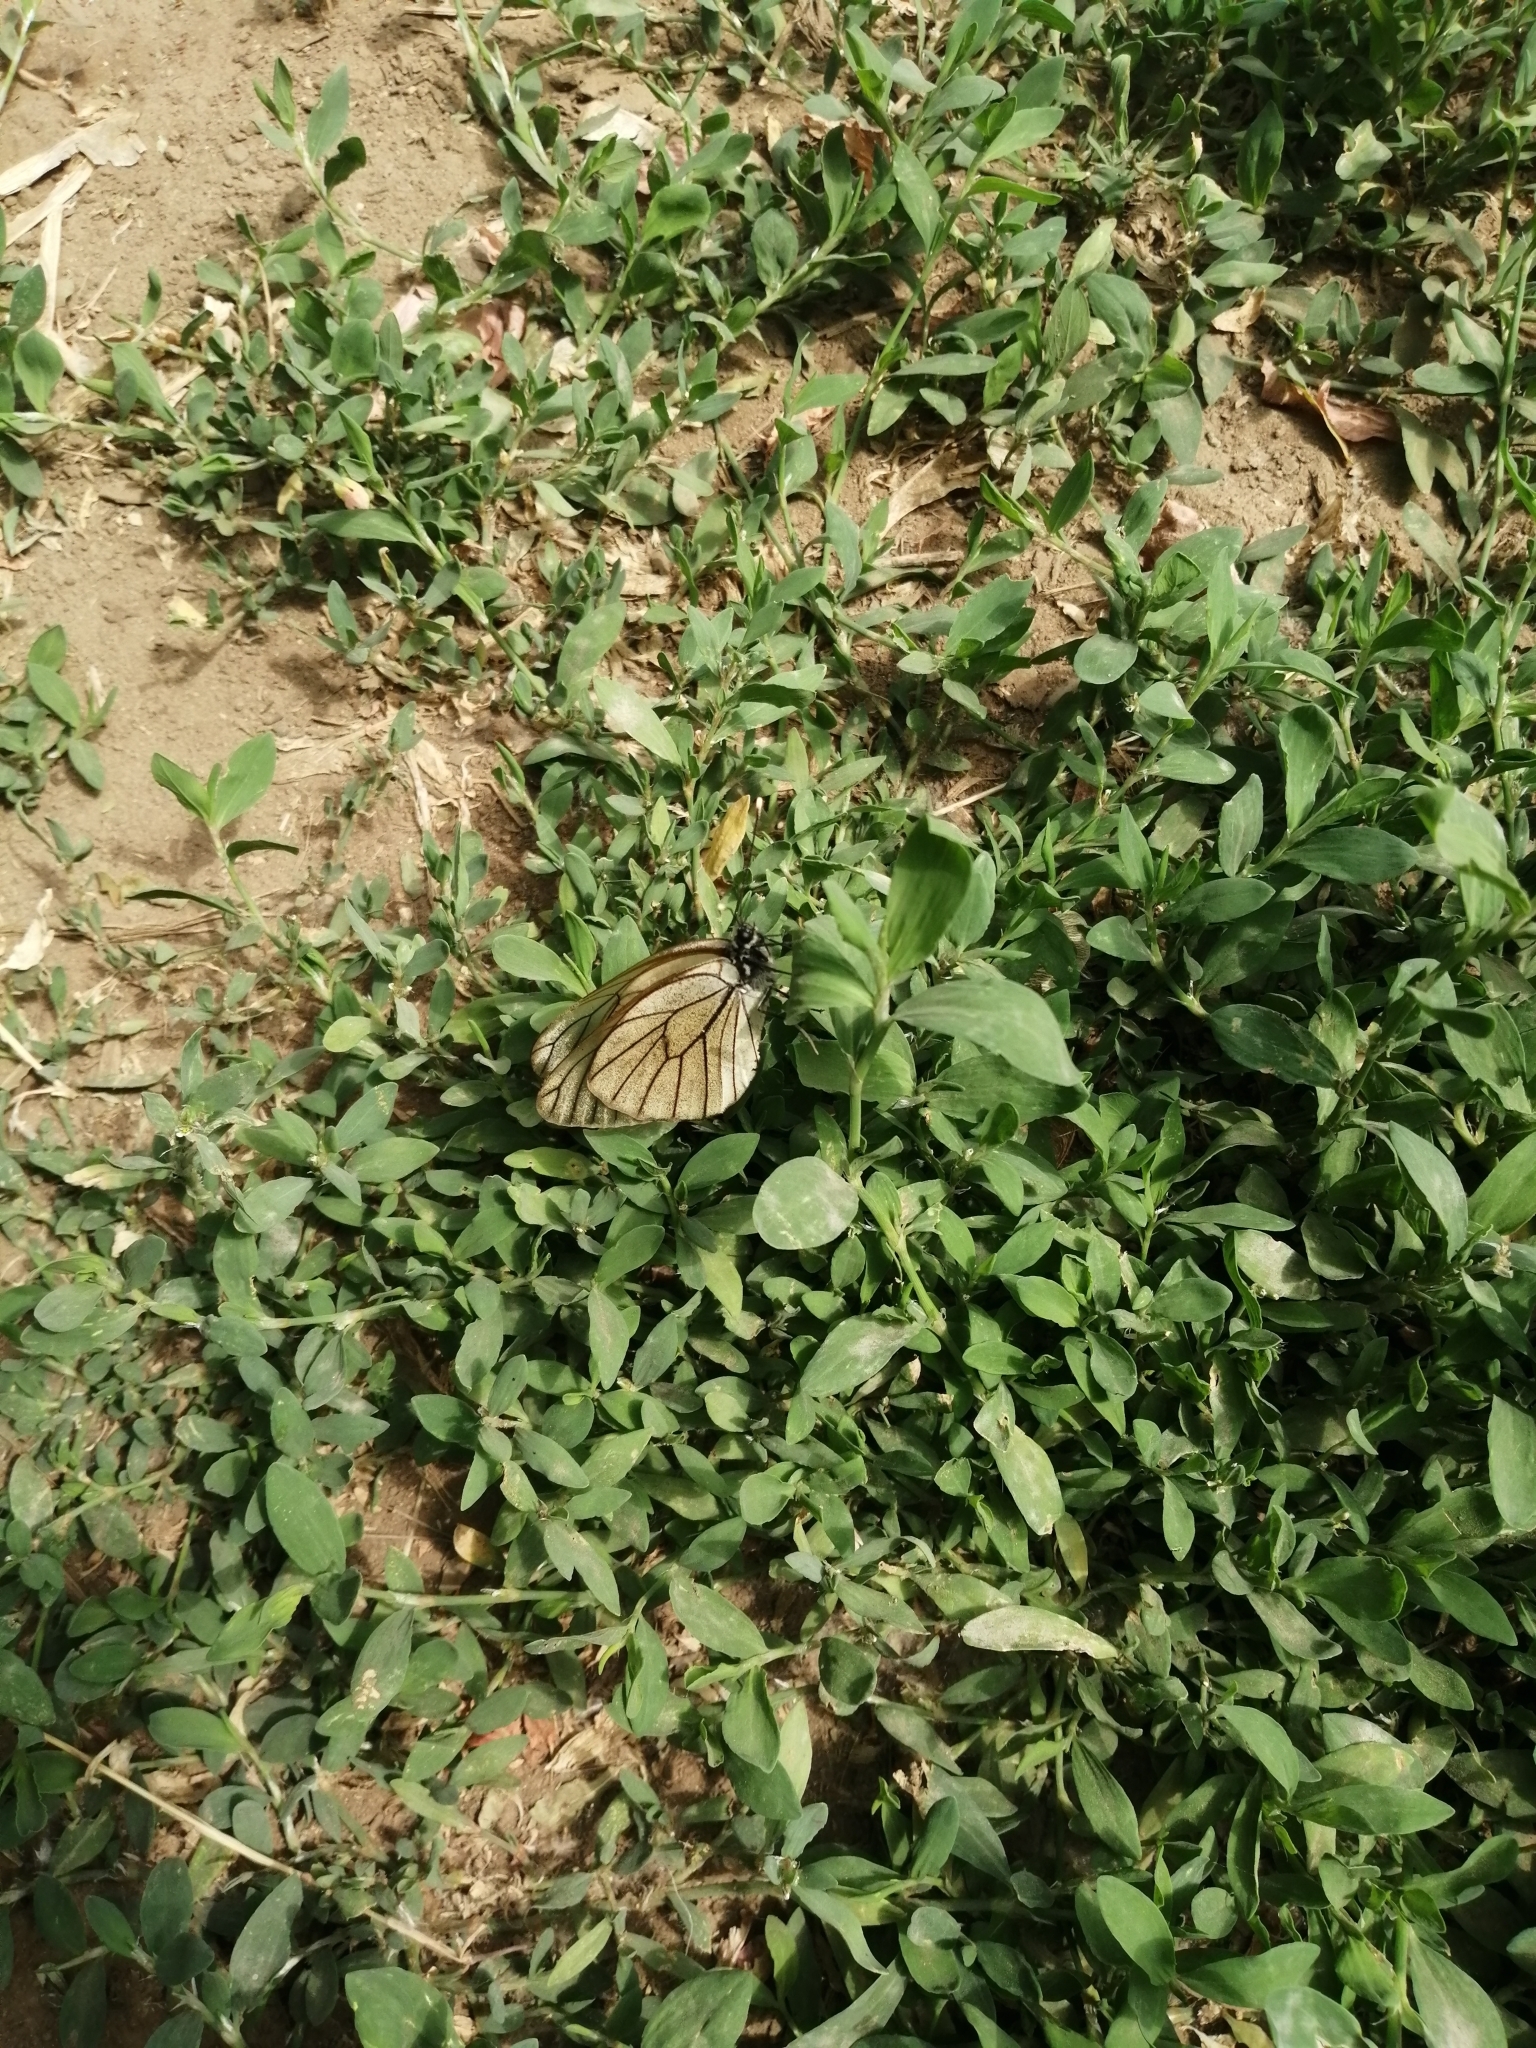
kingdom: Animalia
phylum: Arthropoda
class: Insecta
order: Lepidoptera
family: Pieridae
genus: Aporia
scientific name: Aporia crataegi
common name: Black-veined white
